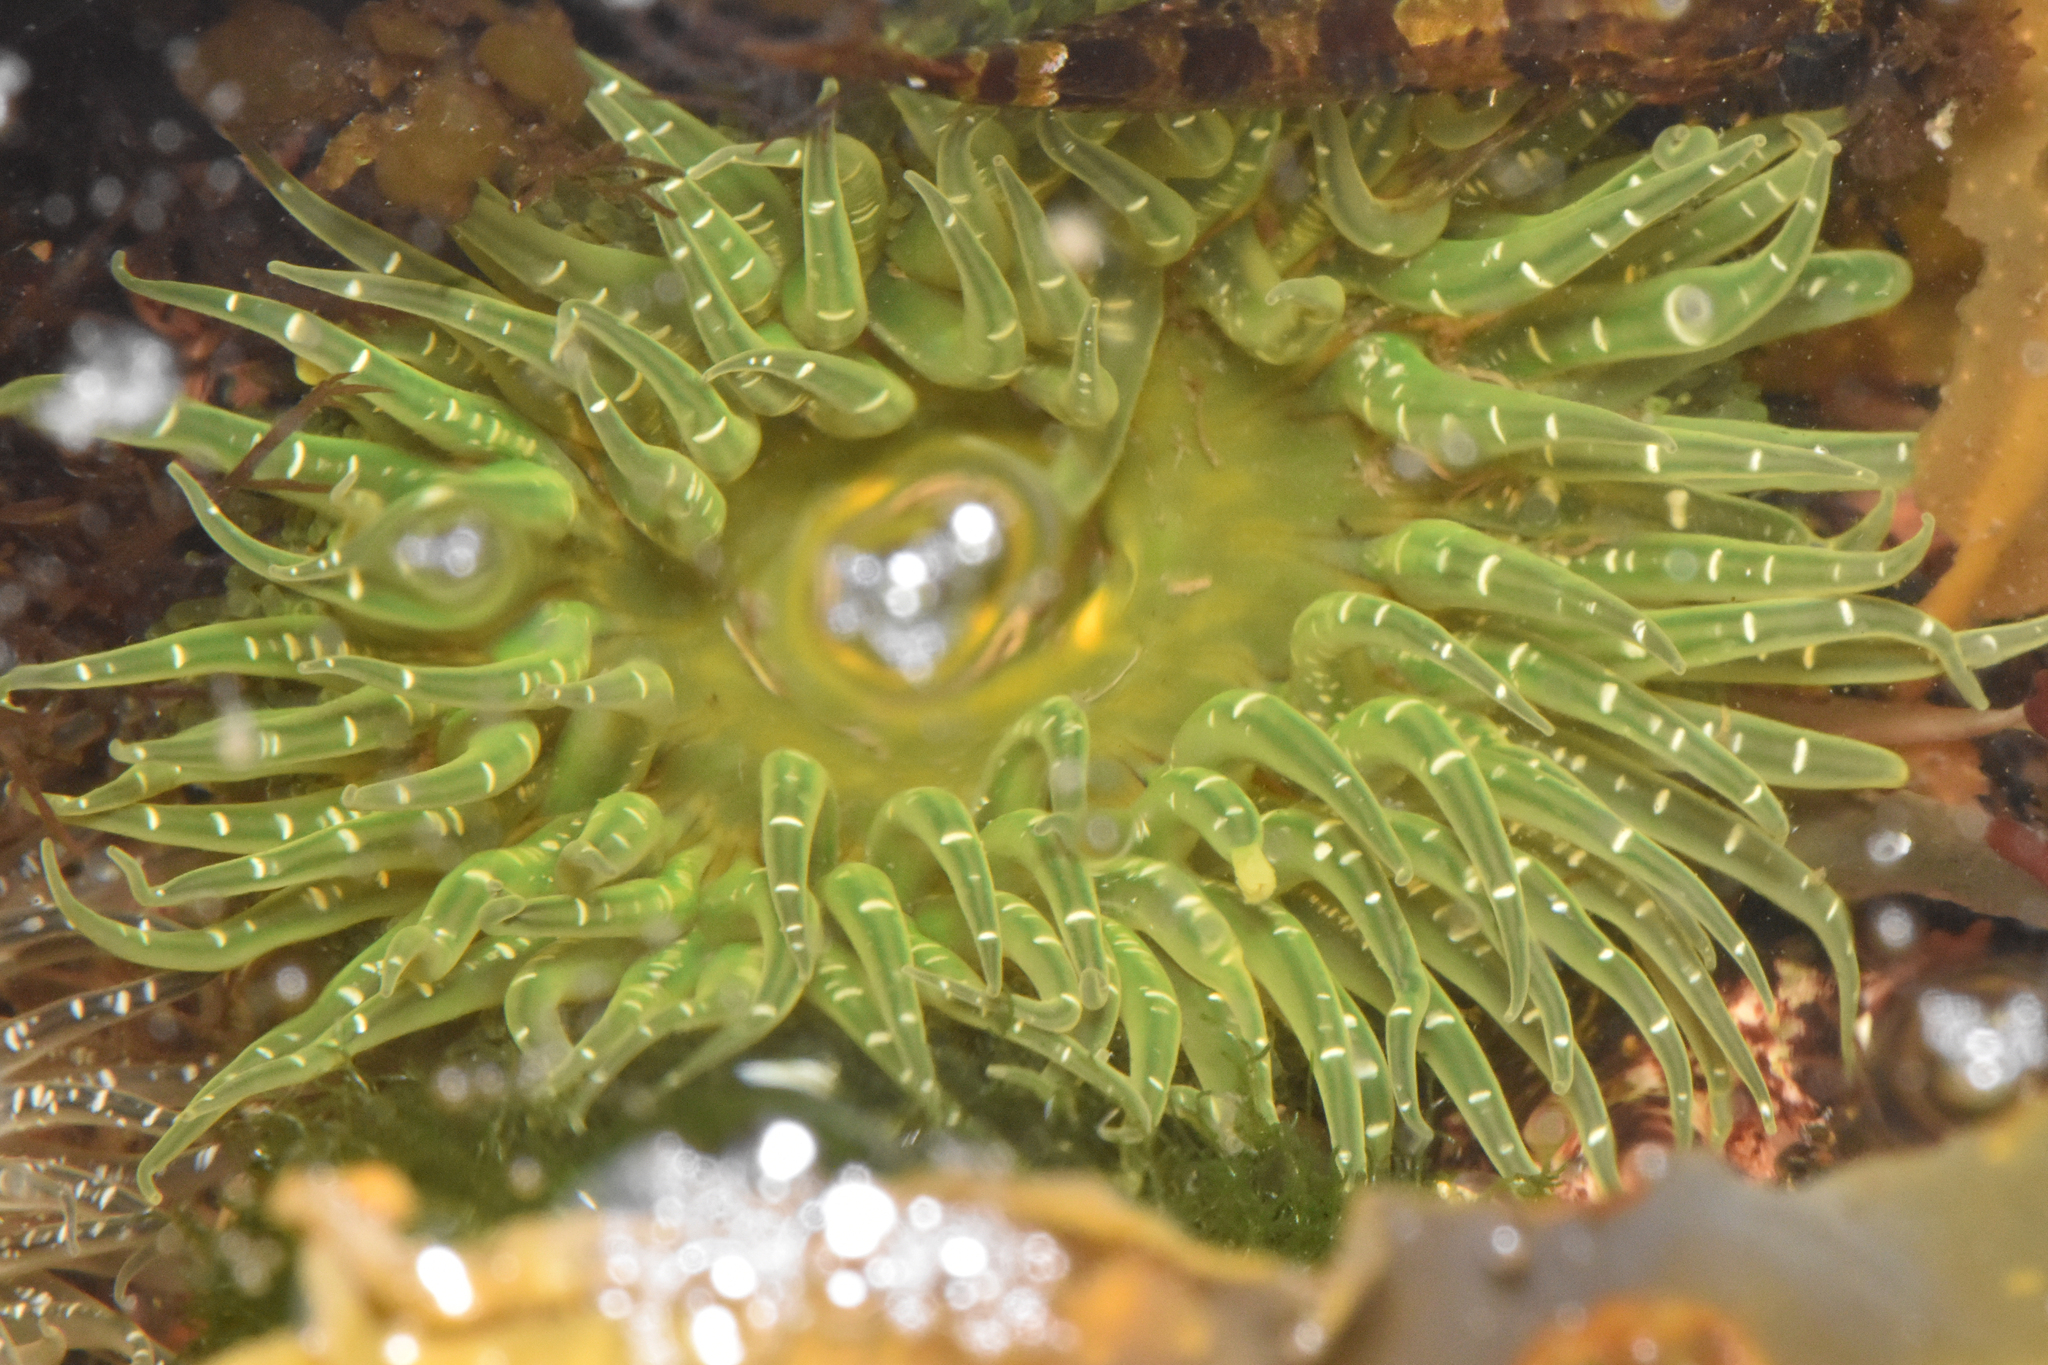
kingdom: Animalia
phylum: Cnidaria
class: Anthozoa
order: Actiniaria
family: Actiniidae
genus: Anthopleura
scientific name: Anthopleura artemisia
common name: Buried sea anemone
